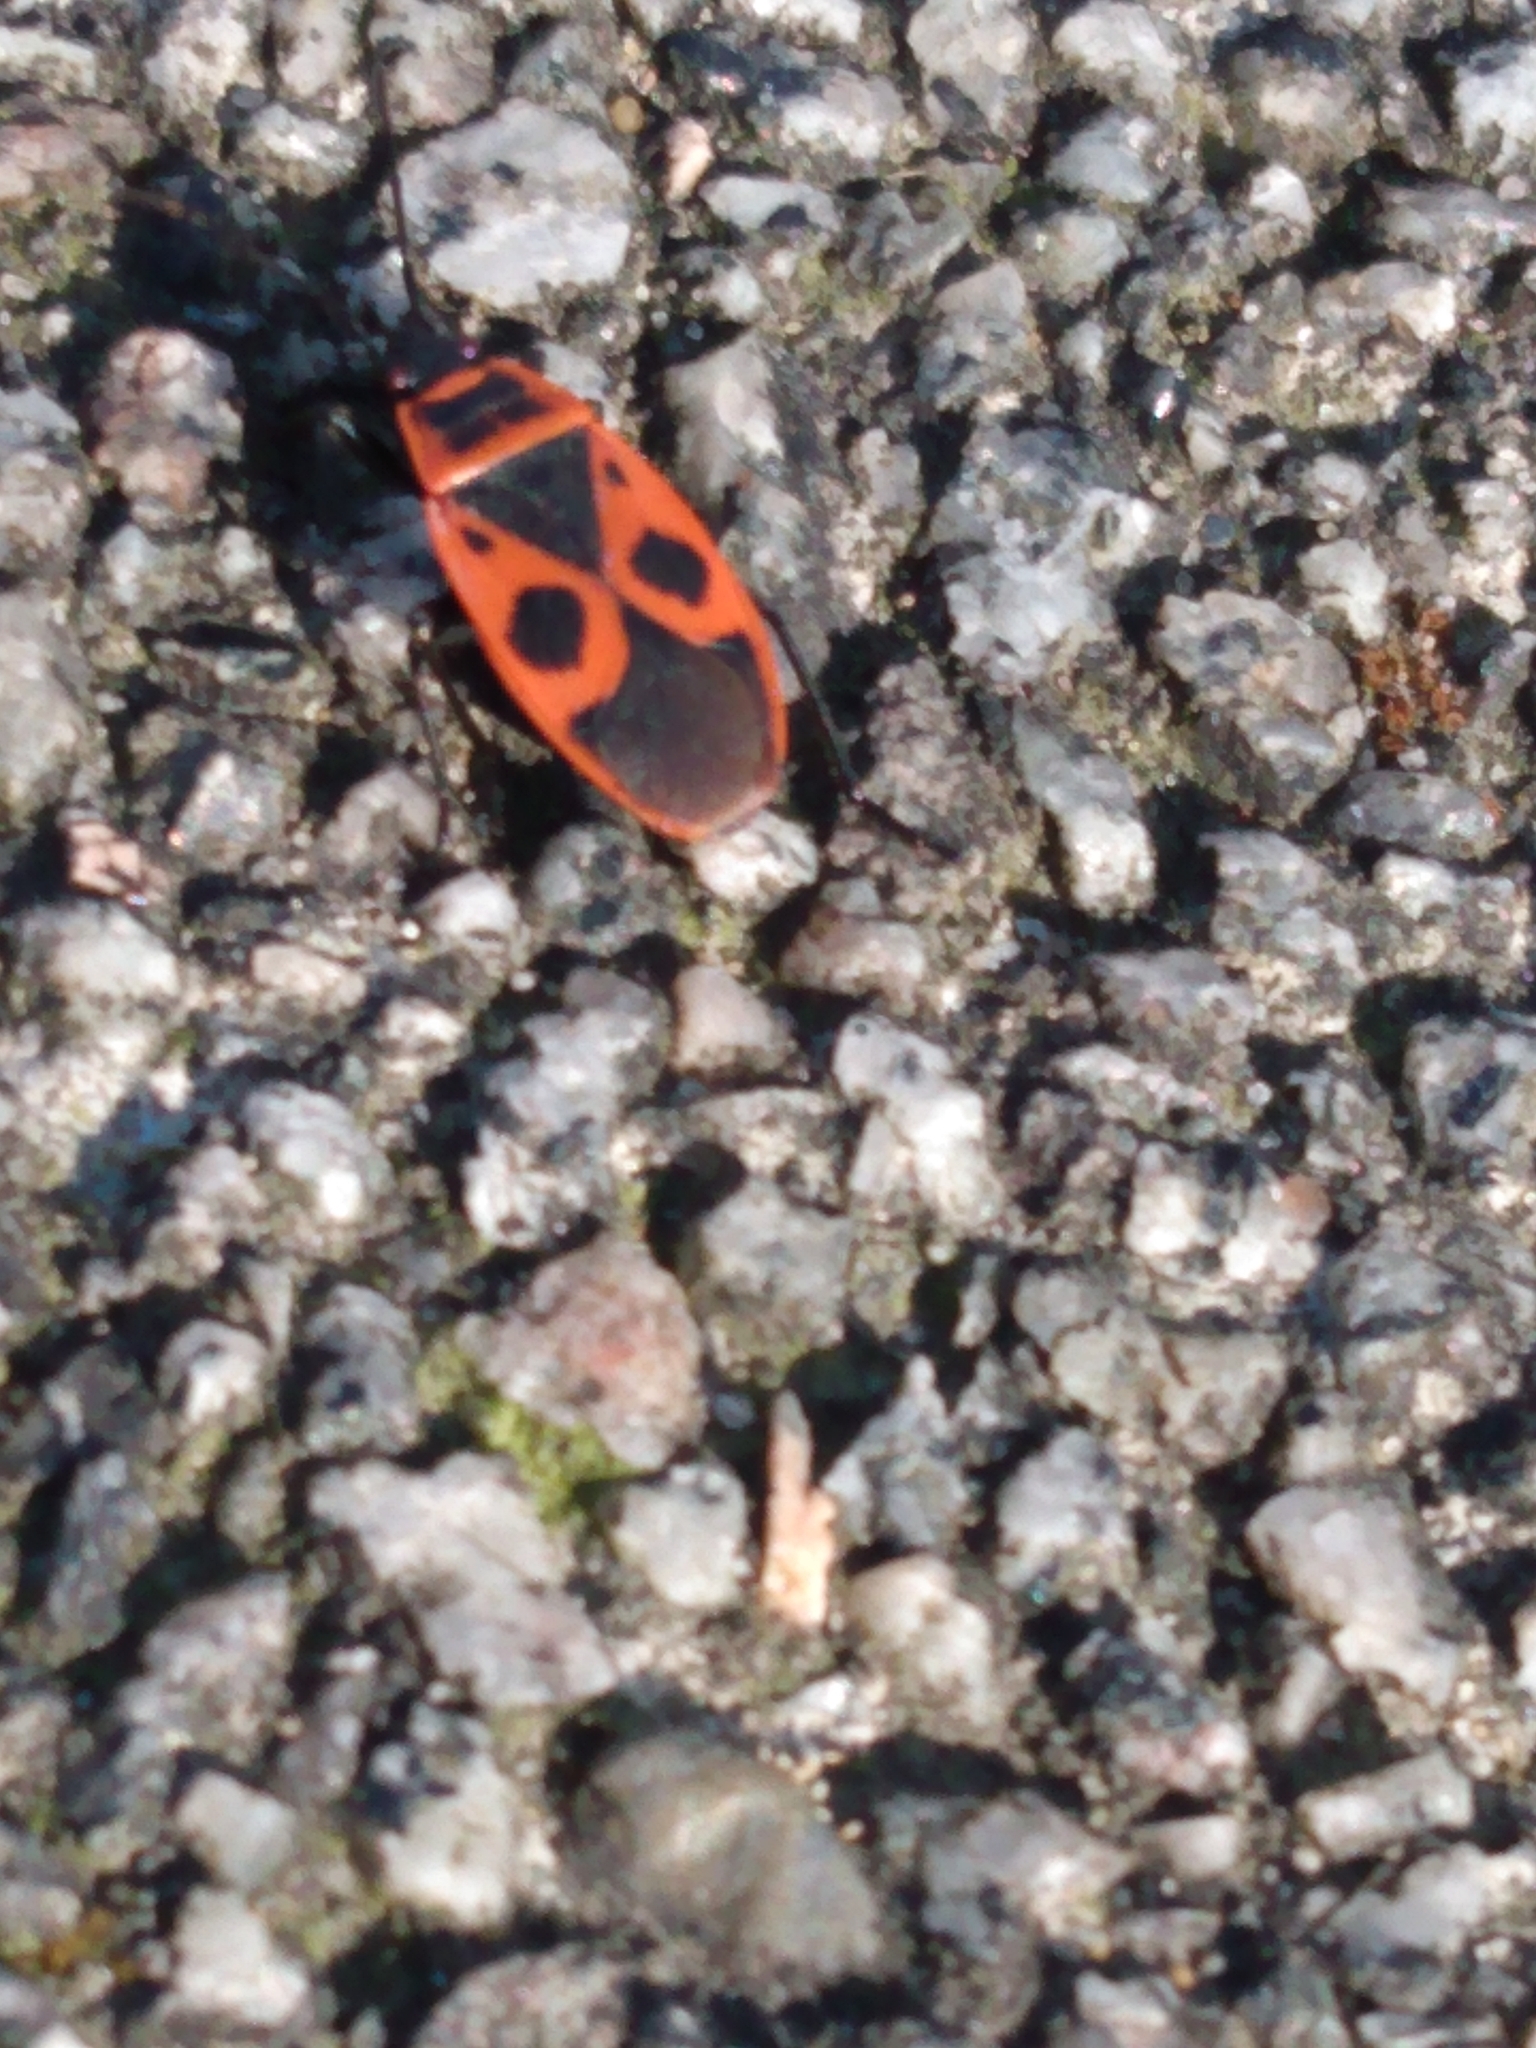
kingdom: Animalia
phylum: Arthropoda
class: Insecta
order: Hemiptera
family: Pyrrhocoridae
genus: Pyrrhocoris
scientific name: Pyrrhocoris apterus
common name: Firebug
